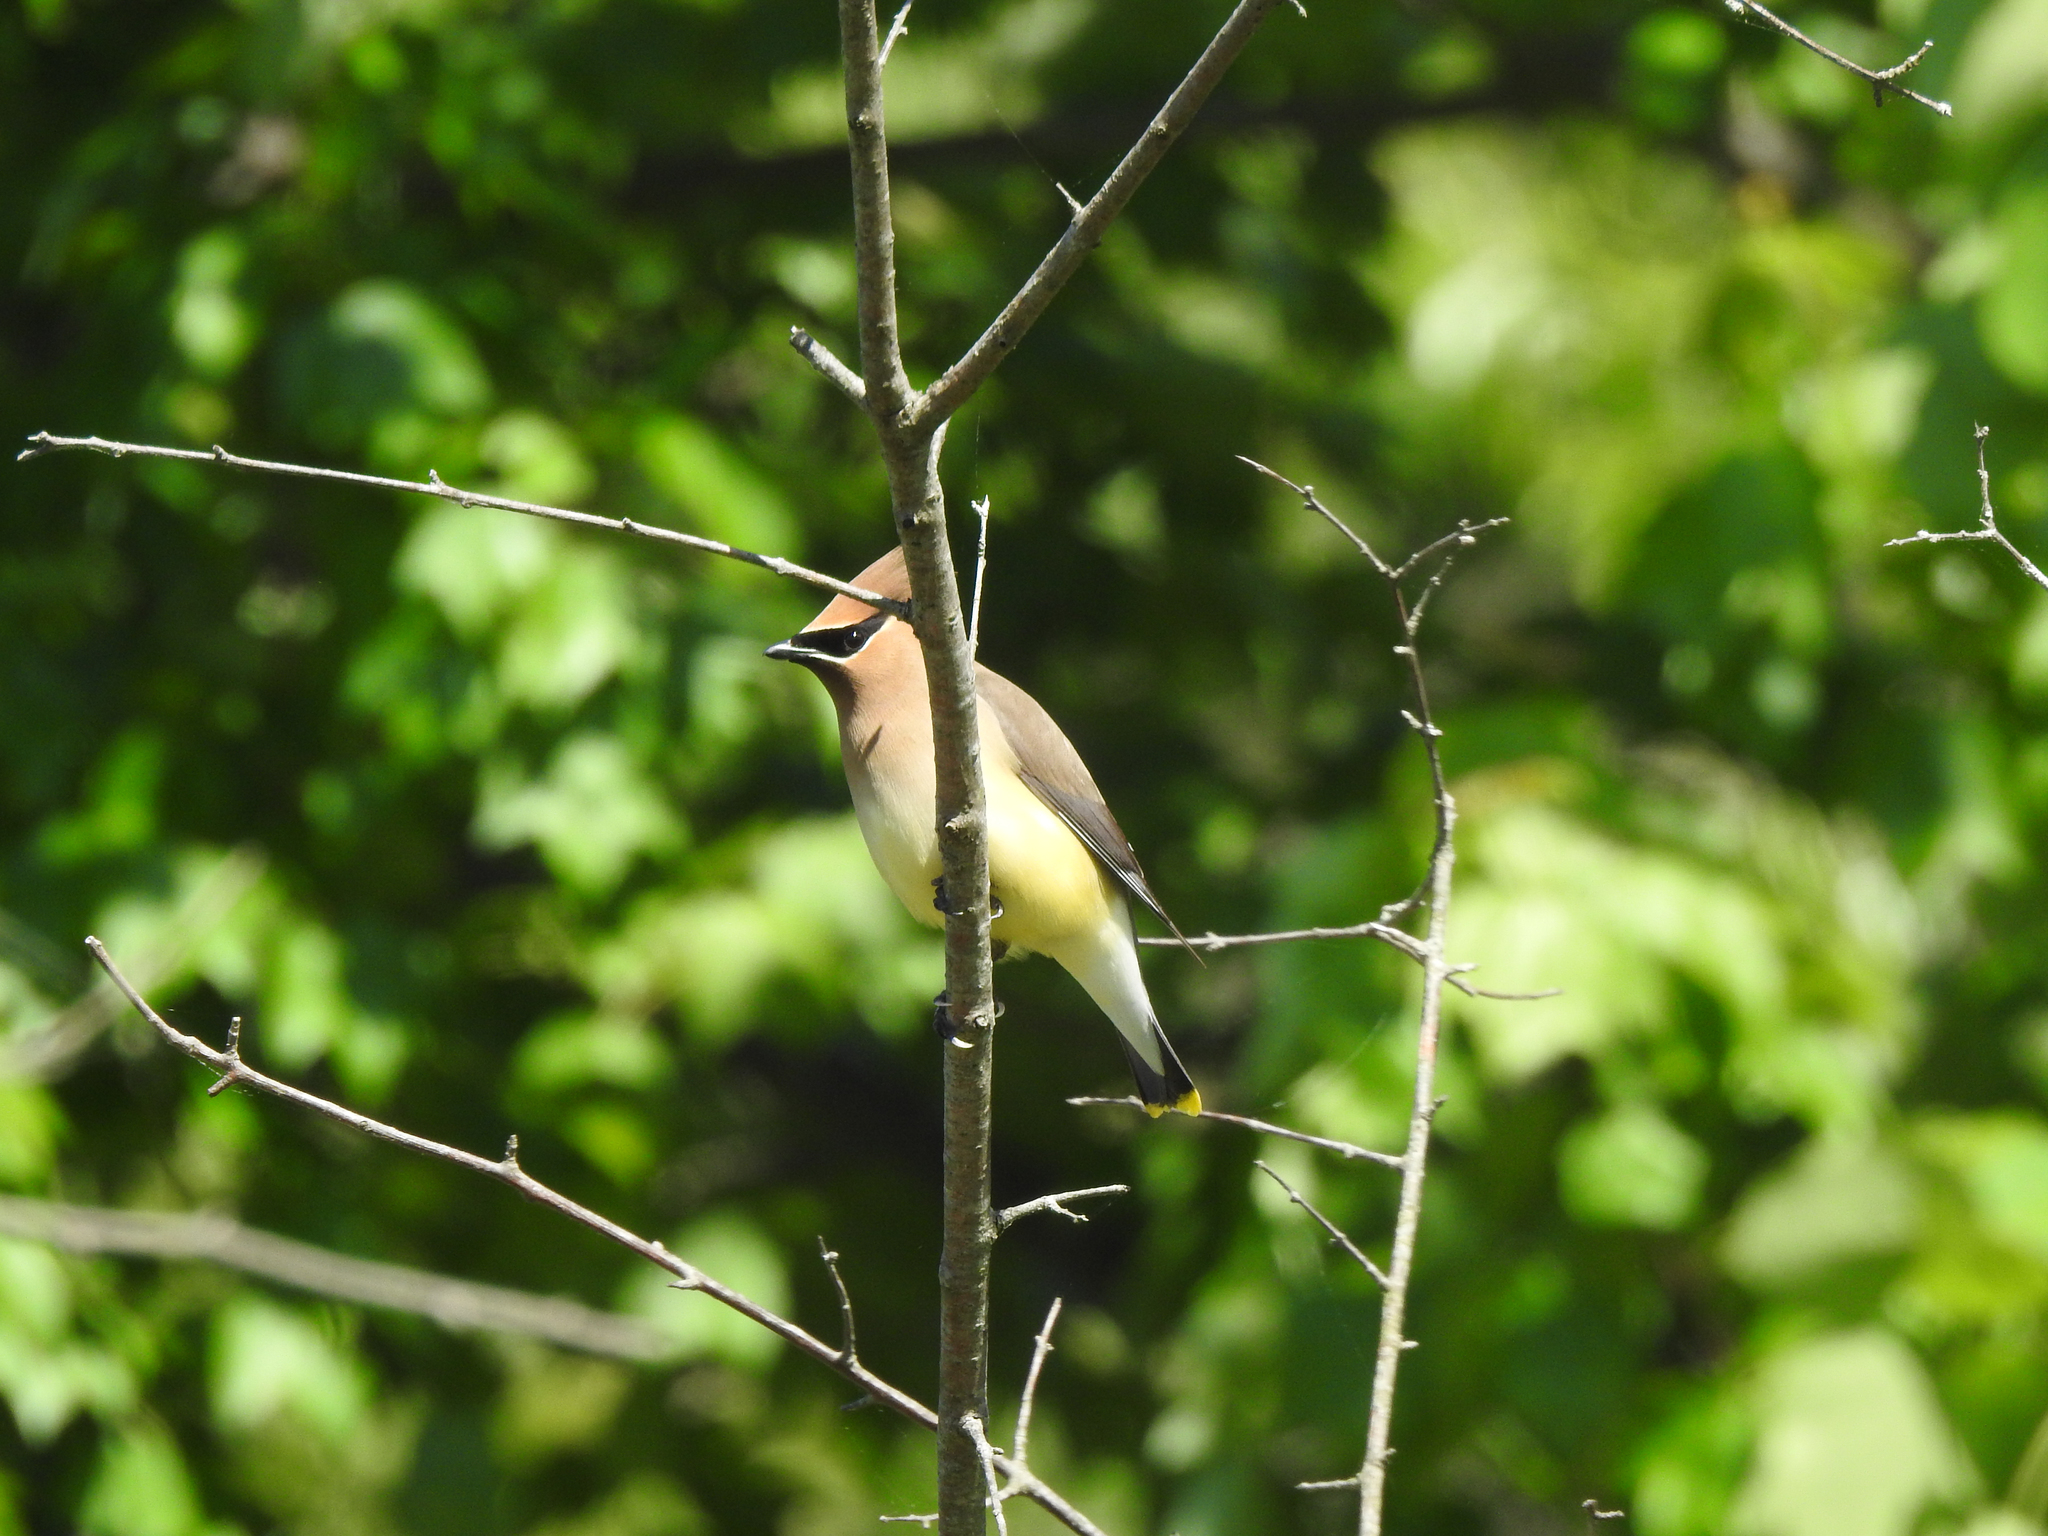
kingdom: Animalia
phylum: Chordata
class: Aves
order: Passeriformes
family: Bombycillidae
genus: Bombycilla
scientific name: Bombycilla cedrorum
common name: Cedar waxwing
